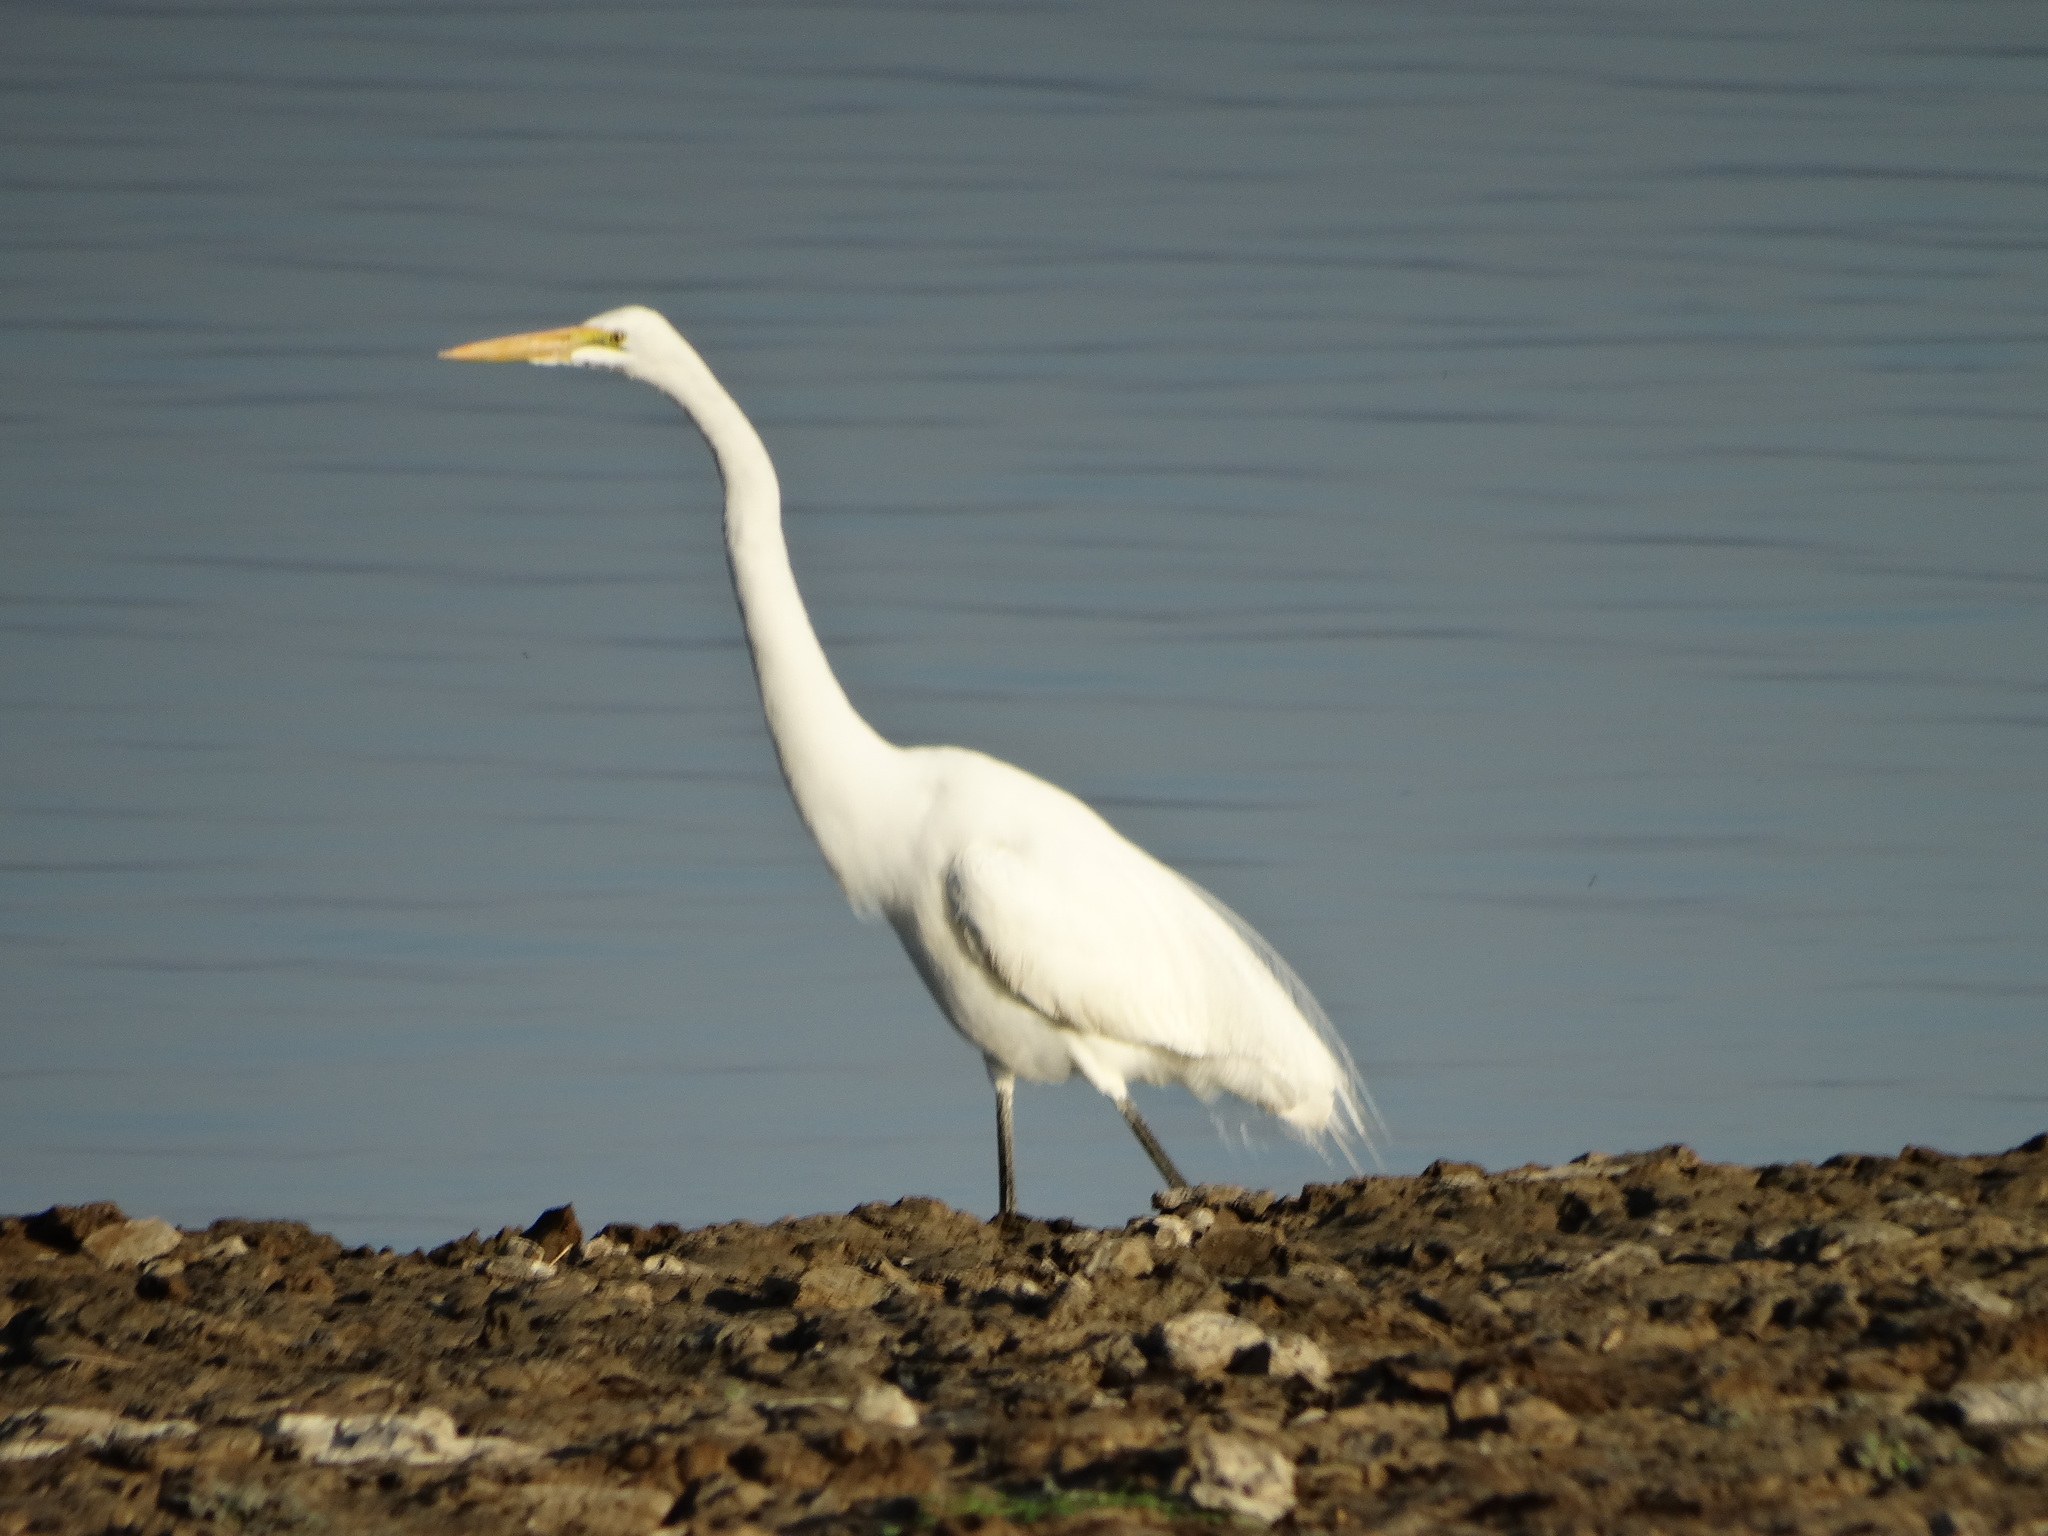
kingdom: Animalia
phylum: Chordata
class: Aves
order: Pelecaniformes
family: Ardeidae
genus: Ardea
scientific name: Ardea alba
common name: Great egret
